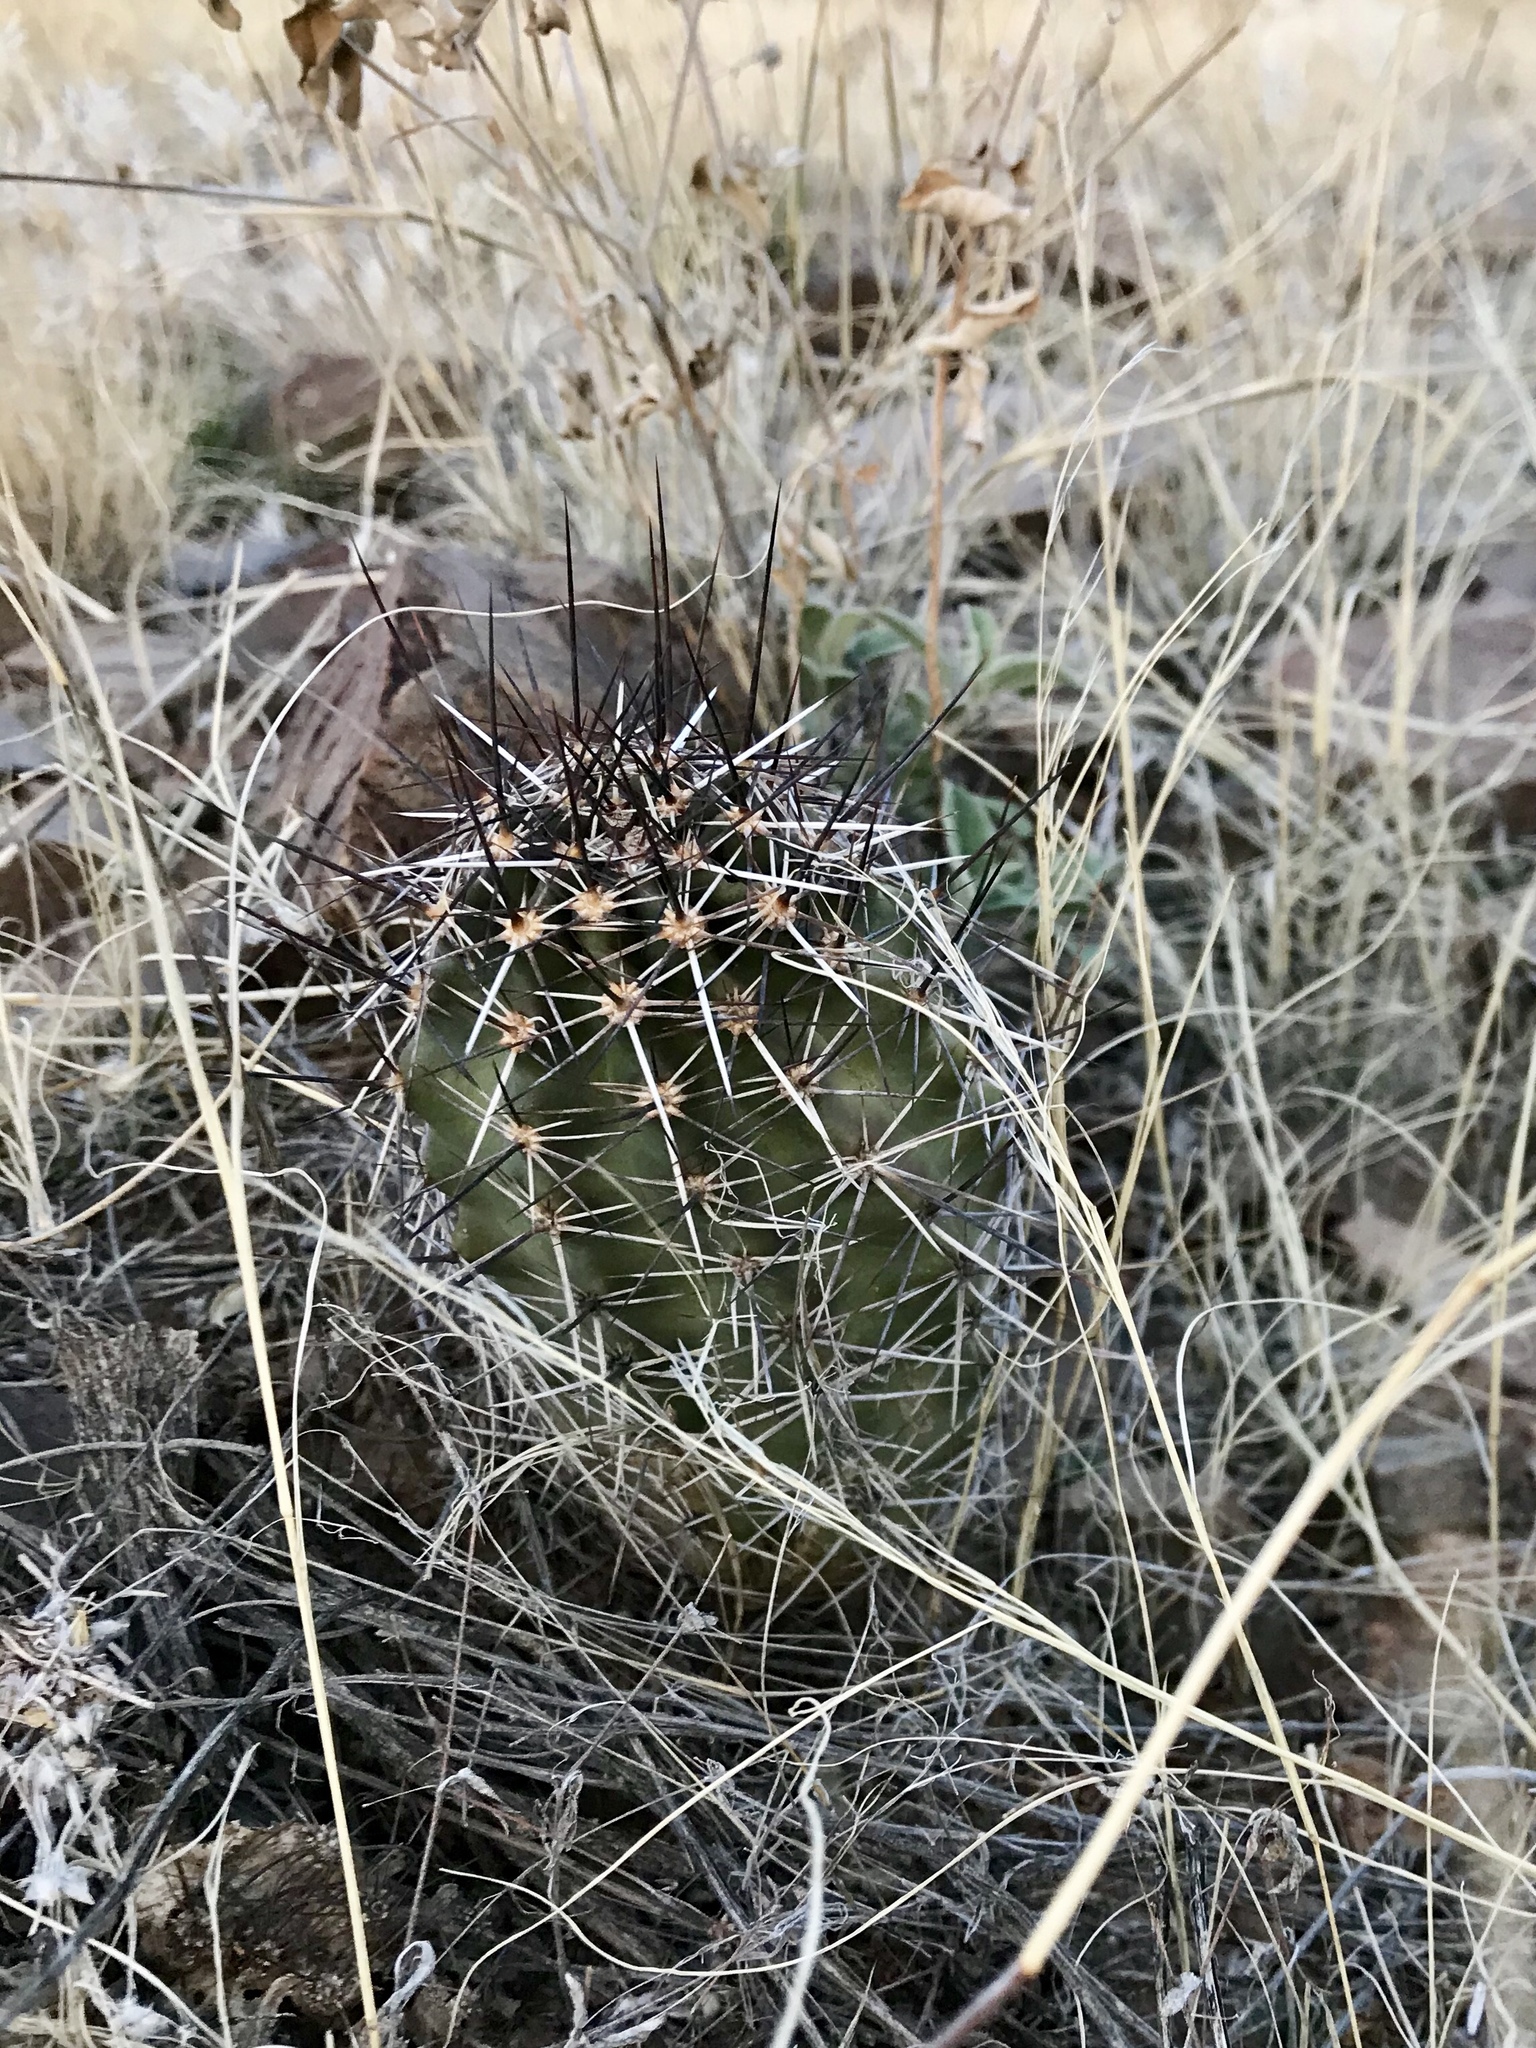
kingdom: Plantae
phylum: Tracheophyta
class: Magnoliopsida
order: Caryophyllales
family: Cactaceae
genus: Echinocereus
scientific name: Echinocereus fendleri
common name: Fendler's hedgehog cactus
